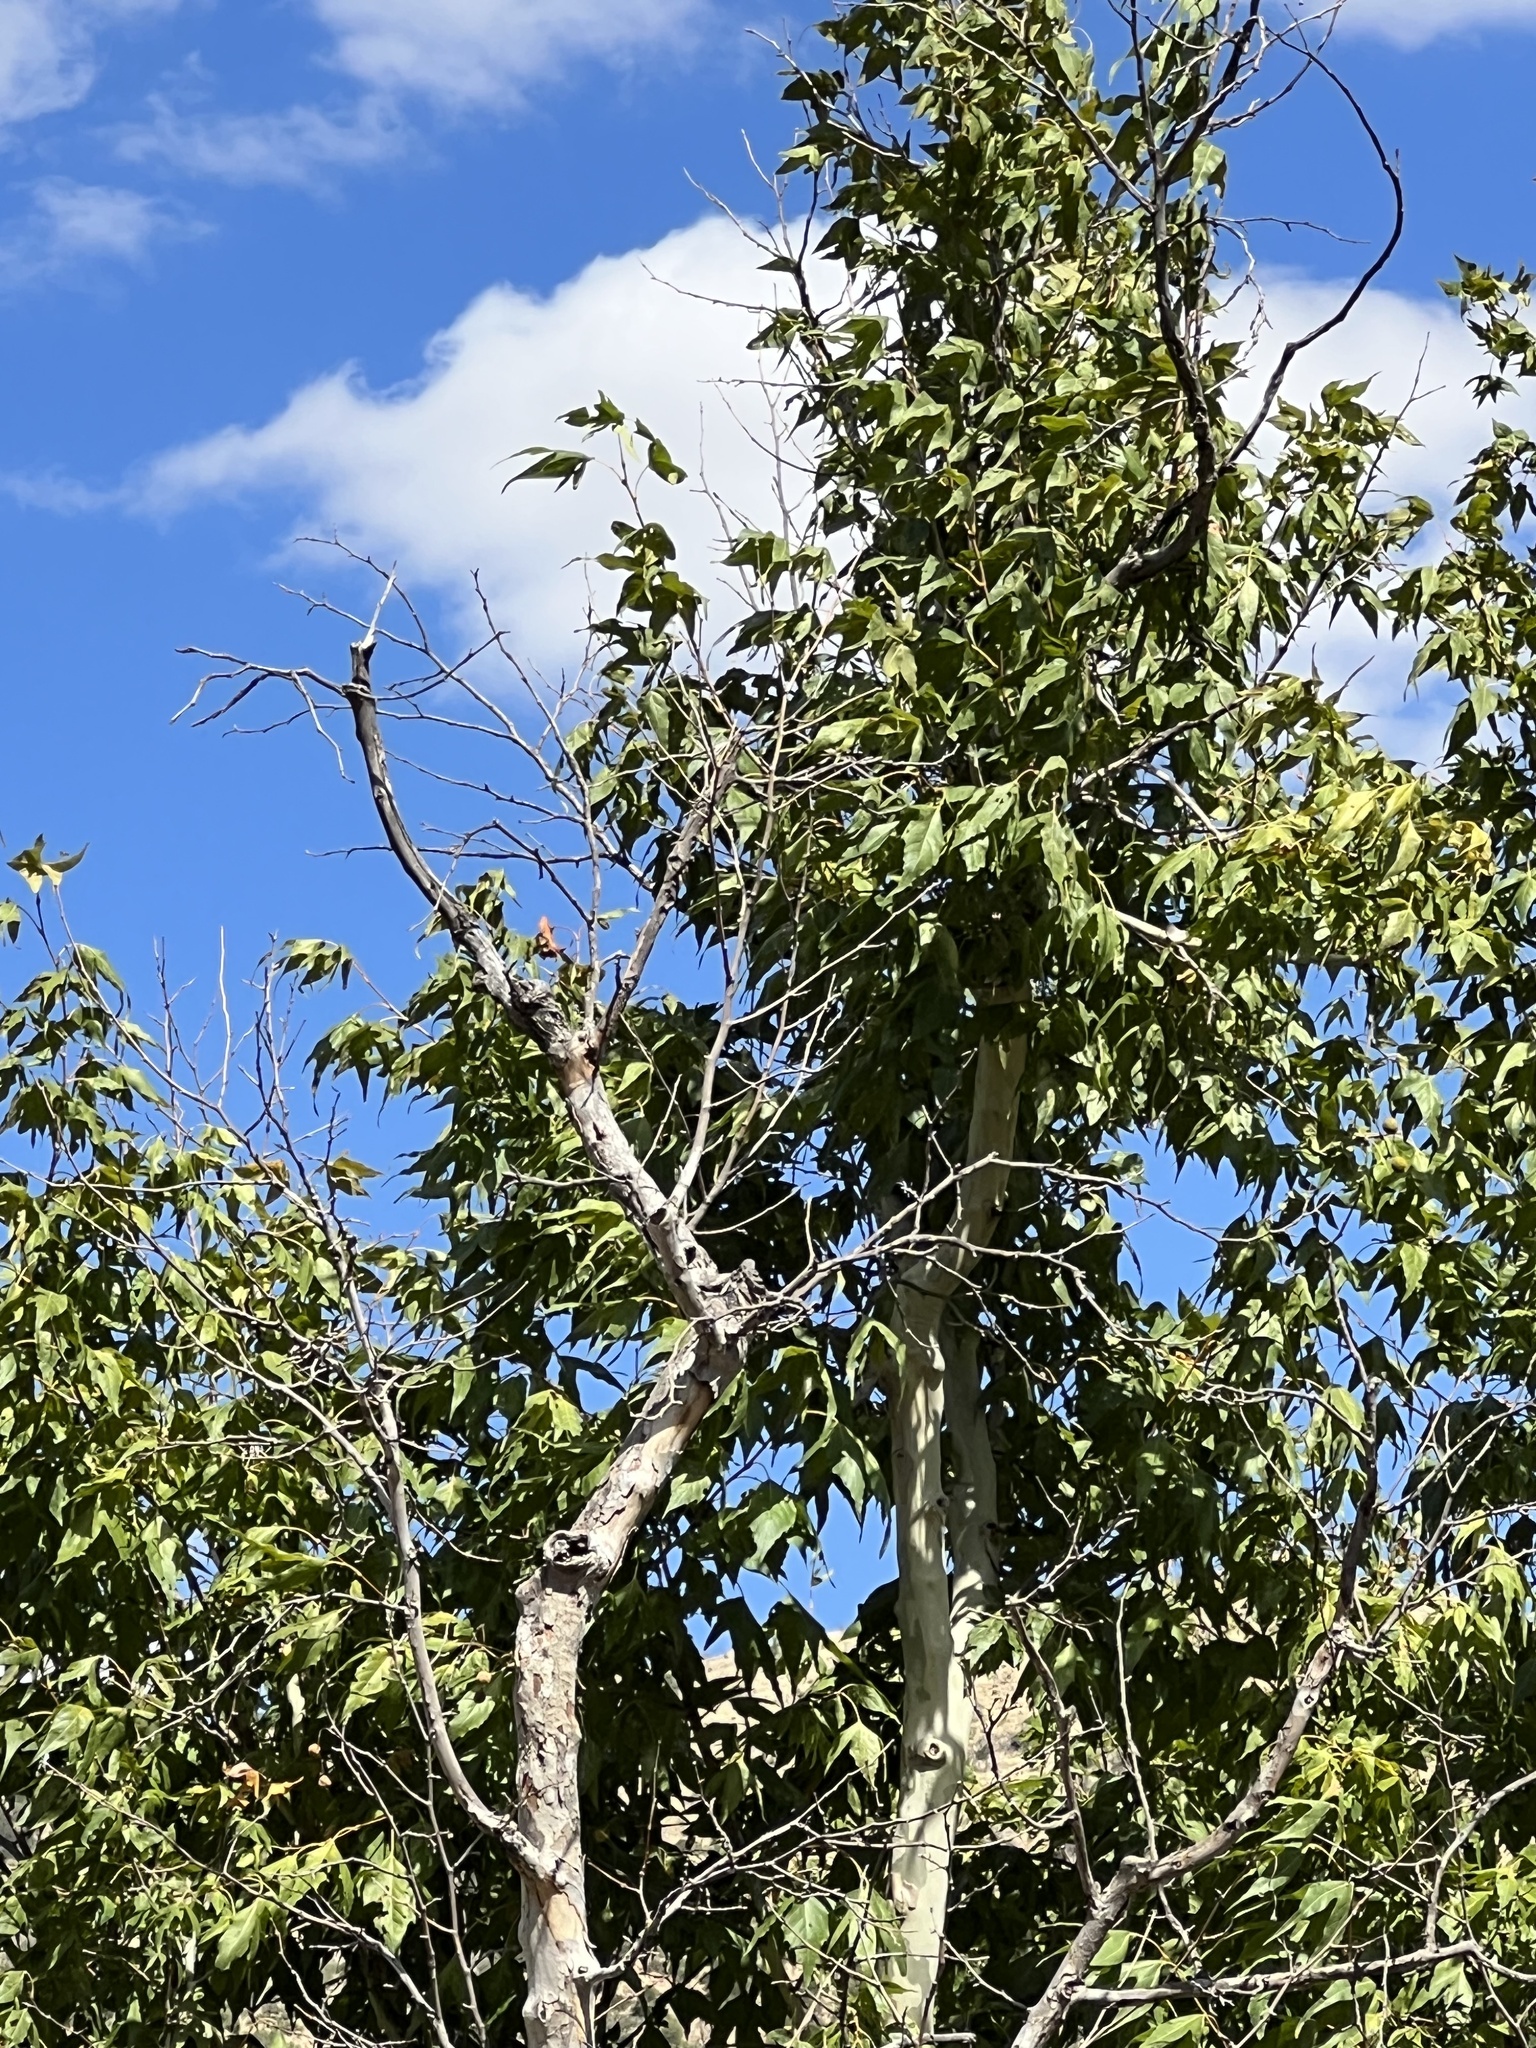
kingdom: Plantae
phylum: Tracheophyta
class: Magnoliopsida
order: Proteales
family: Platanaceae
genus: Platanus
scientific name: Platanus wrightii
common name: Arizona sycamore
